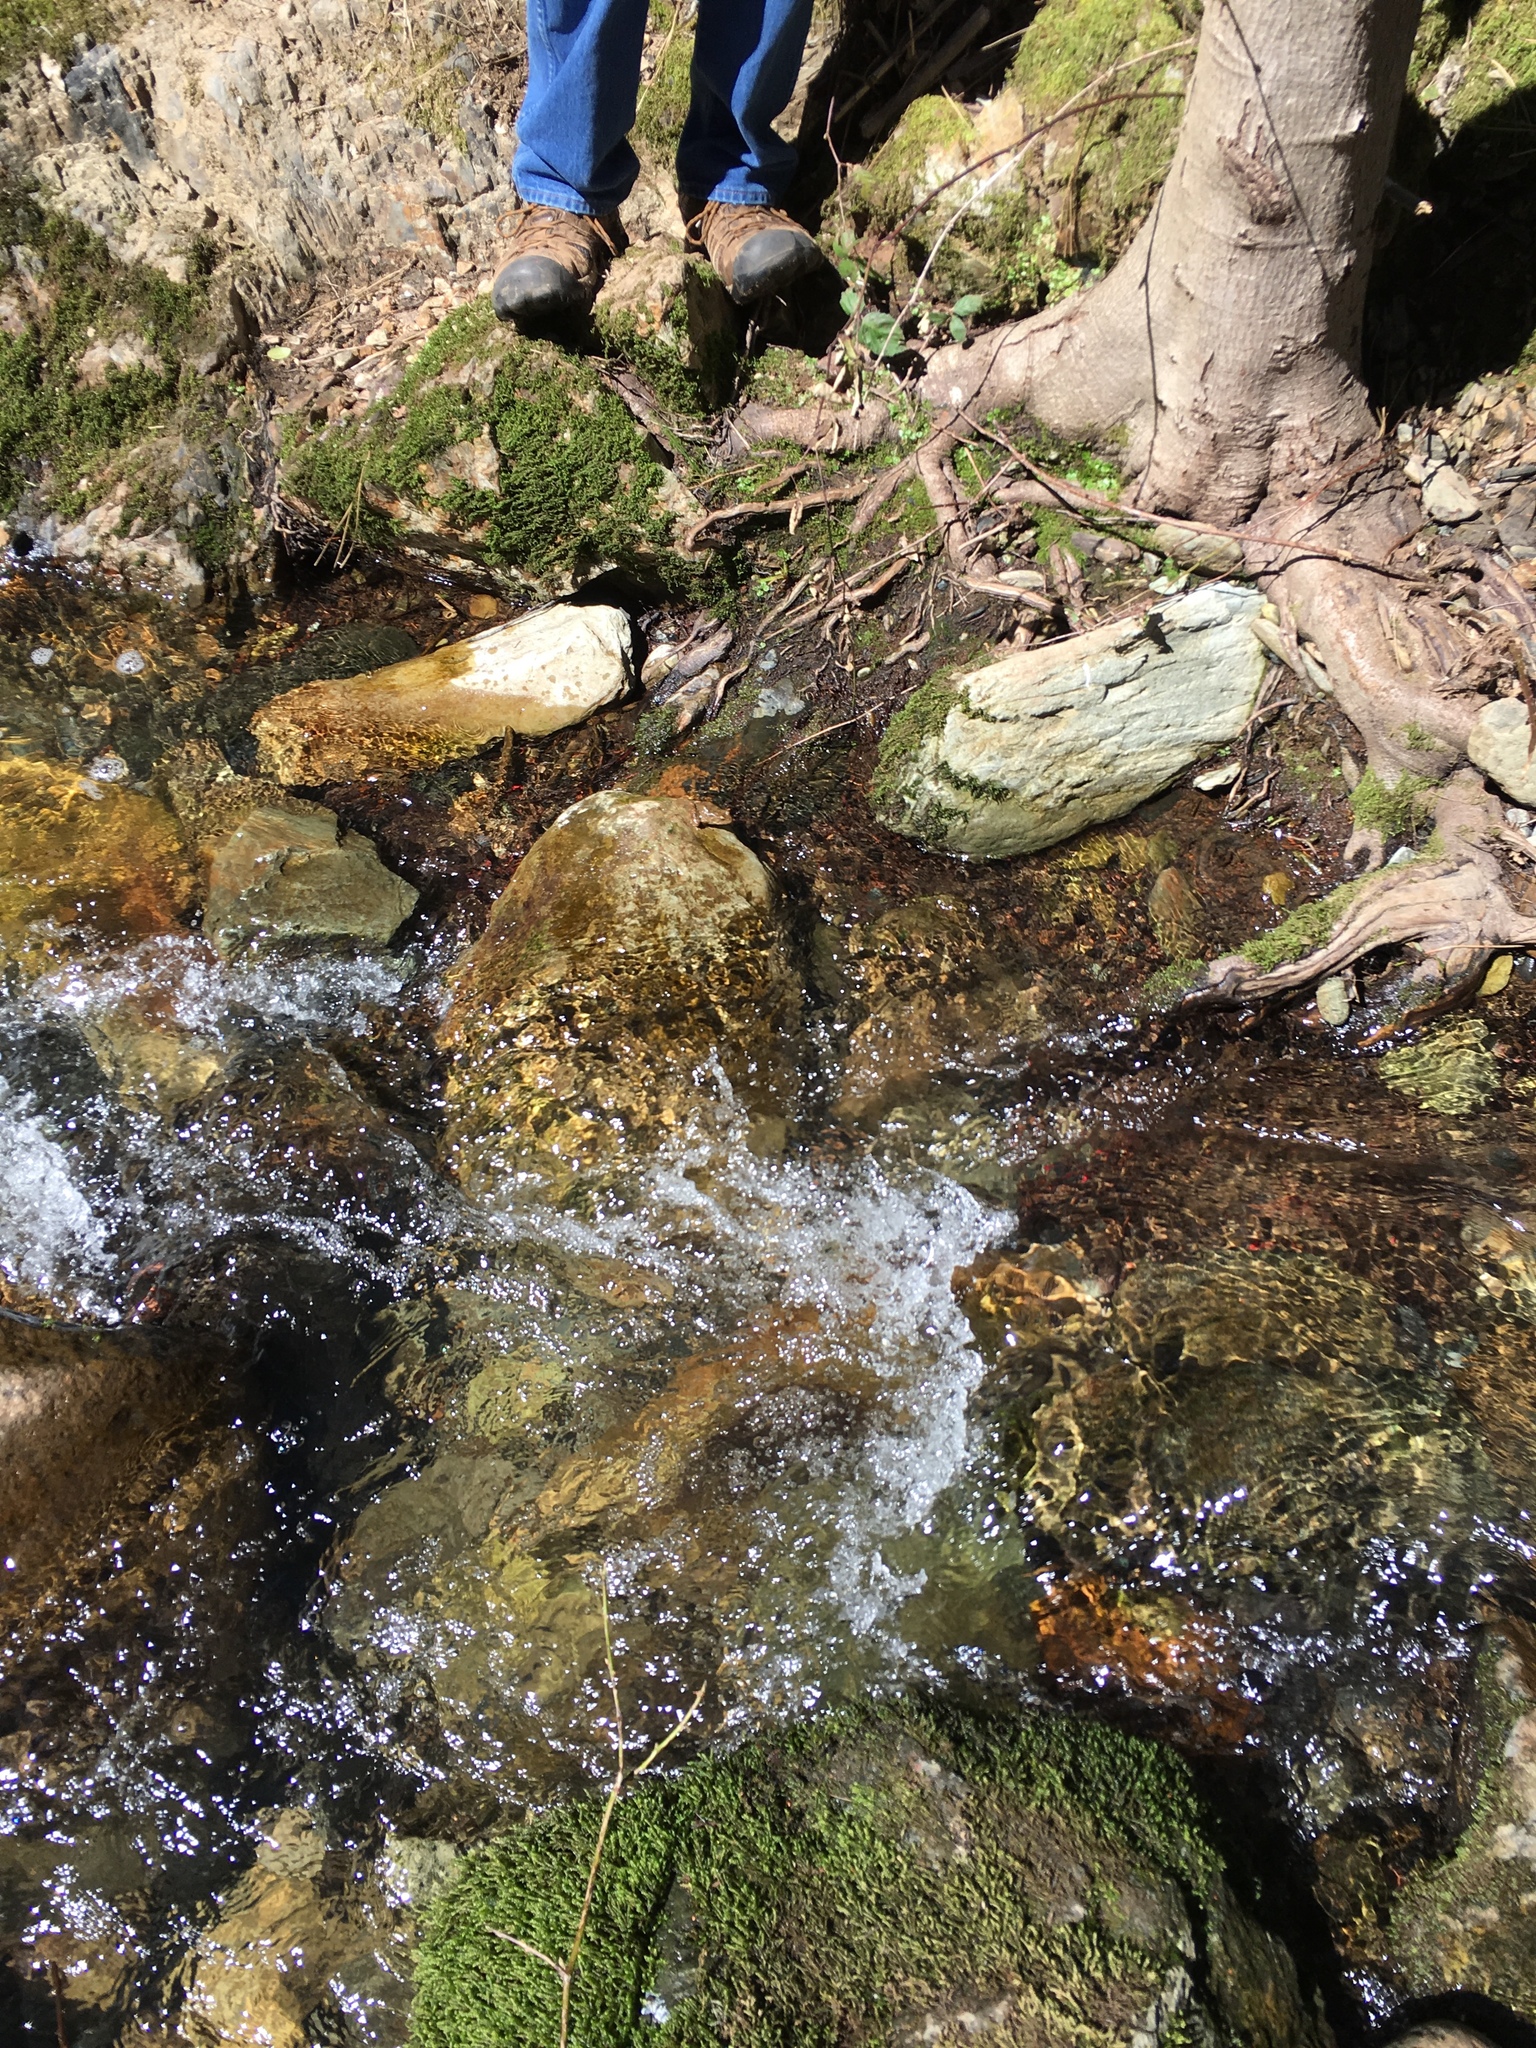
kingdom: Animalia
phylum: Chordata
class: Amphibia
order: Anura
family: Ranidae
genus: Rana
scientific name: Rana boylii
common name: Foothill yellow-legged frog
